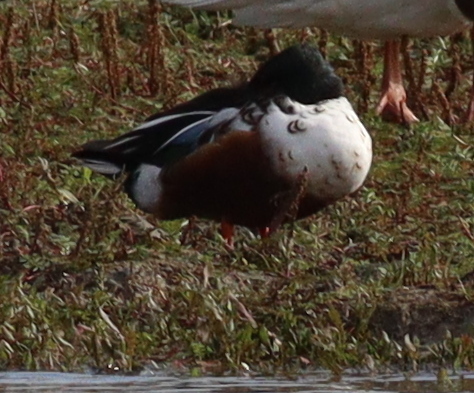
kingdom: Animalia
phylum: Chordata
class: Aves
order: Anseriformes
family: Anatidae
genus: Spatula
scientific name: Spatula clypeata
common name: Northern shoveler
